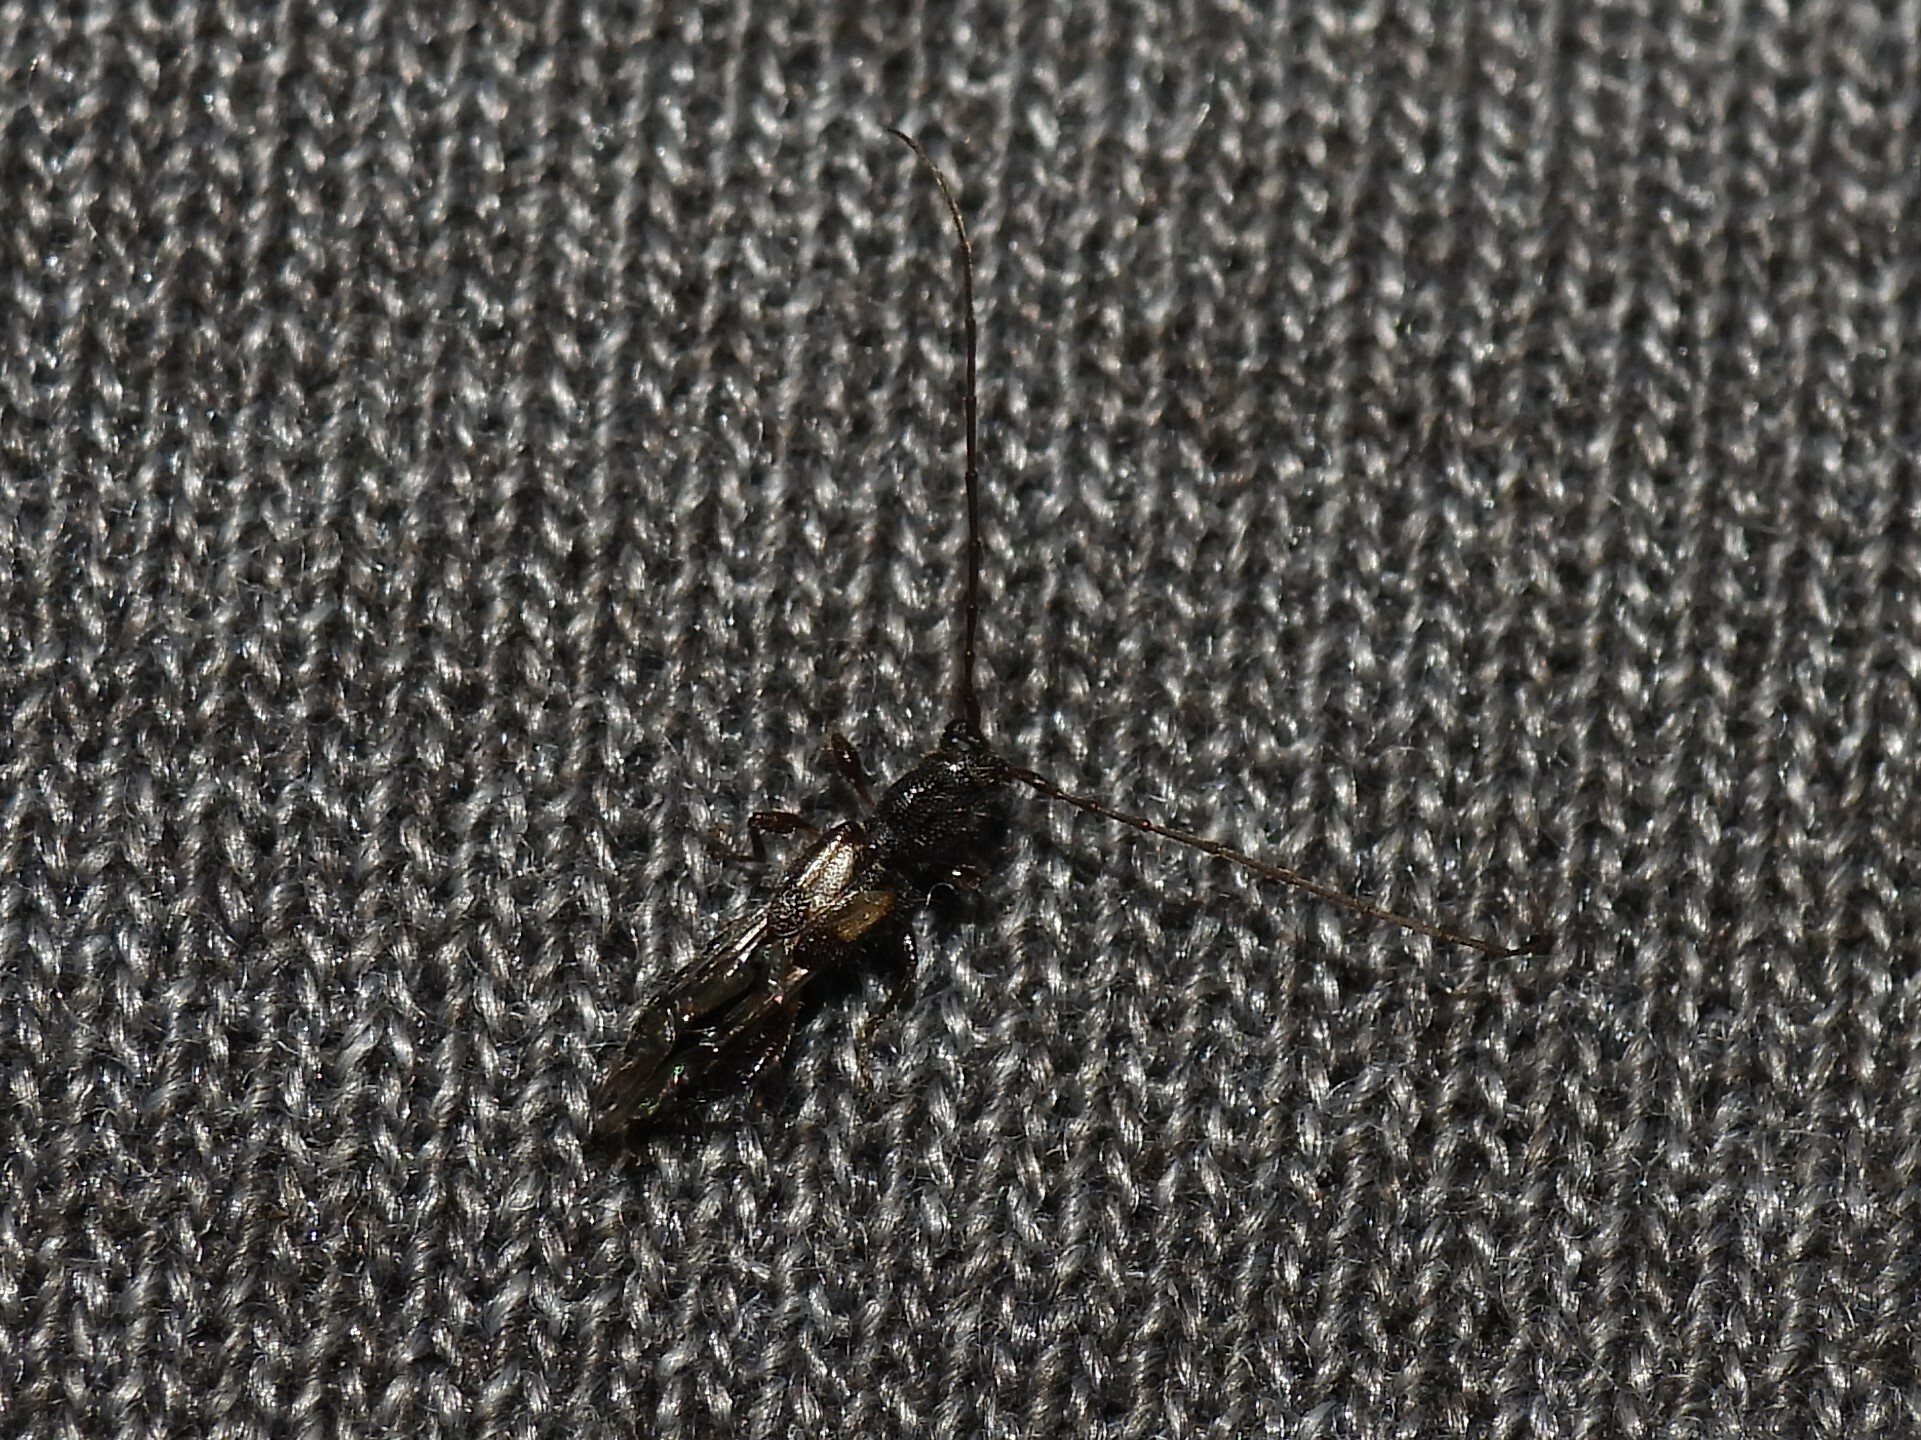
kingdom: Animalia
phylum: Arthropoda
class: Insecta
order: Coleoptera
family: Cerambycidae
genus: Molorchus
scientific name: Molorchus bimaculatus
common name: Bimaculate longhorn beetle
